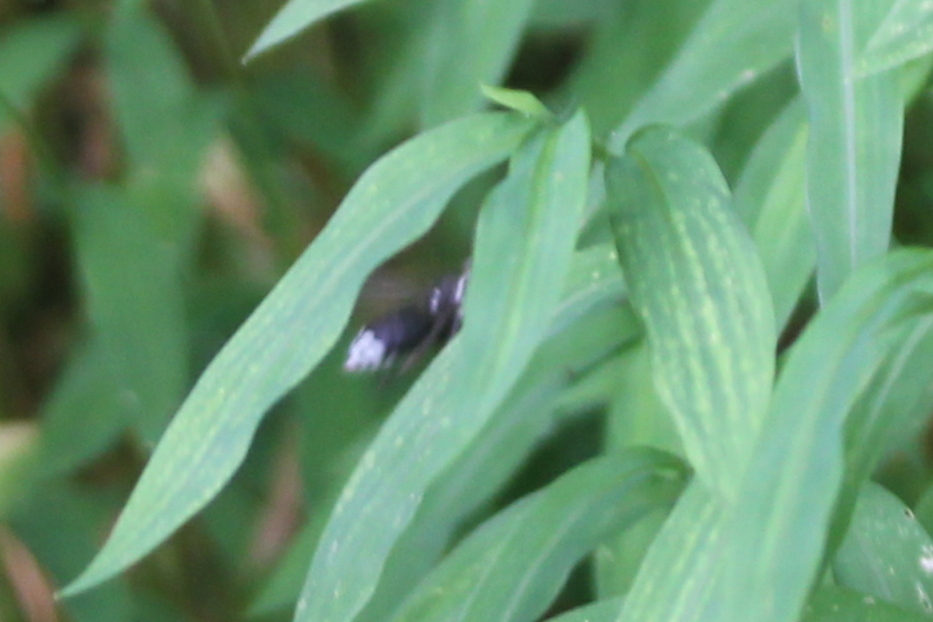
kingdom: Animalia
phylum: Arthropoda
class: Insecta
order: Hymenoptera
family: Vespidae
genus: Dolichovespula
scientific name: Dolichovespula maculata
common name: Bald-faced hornet
